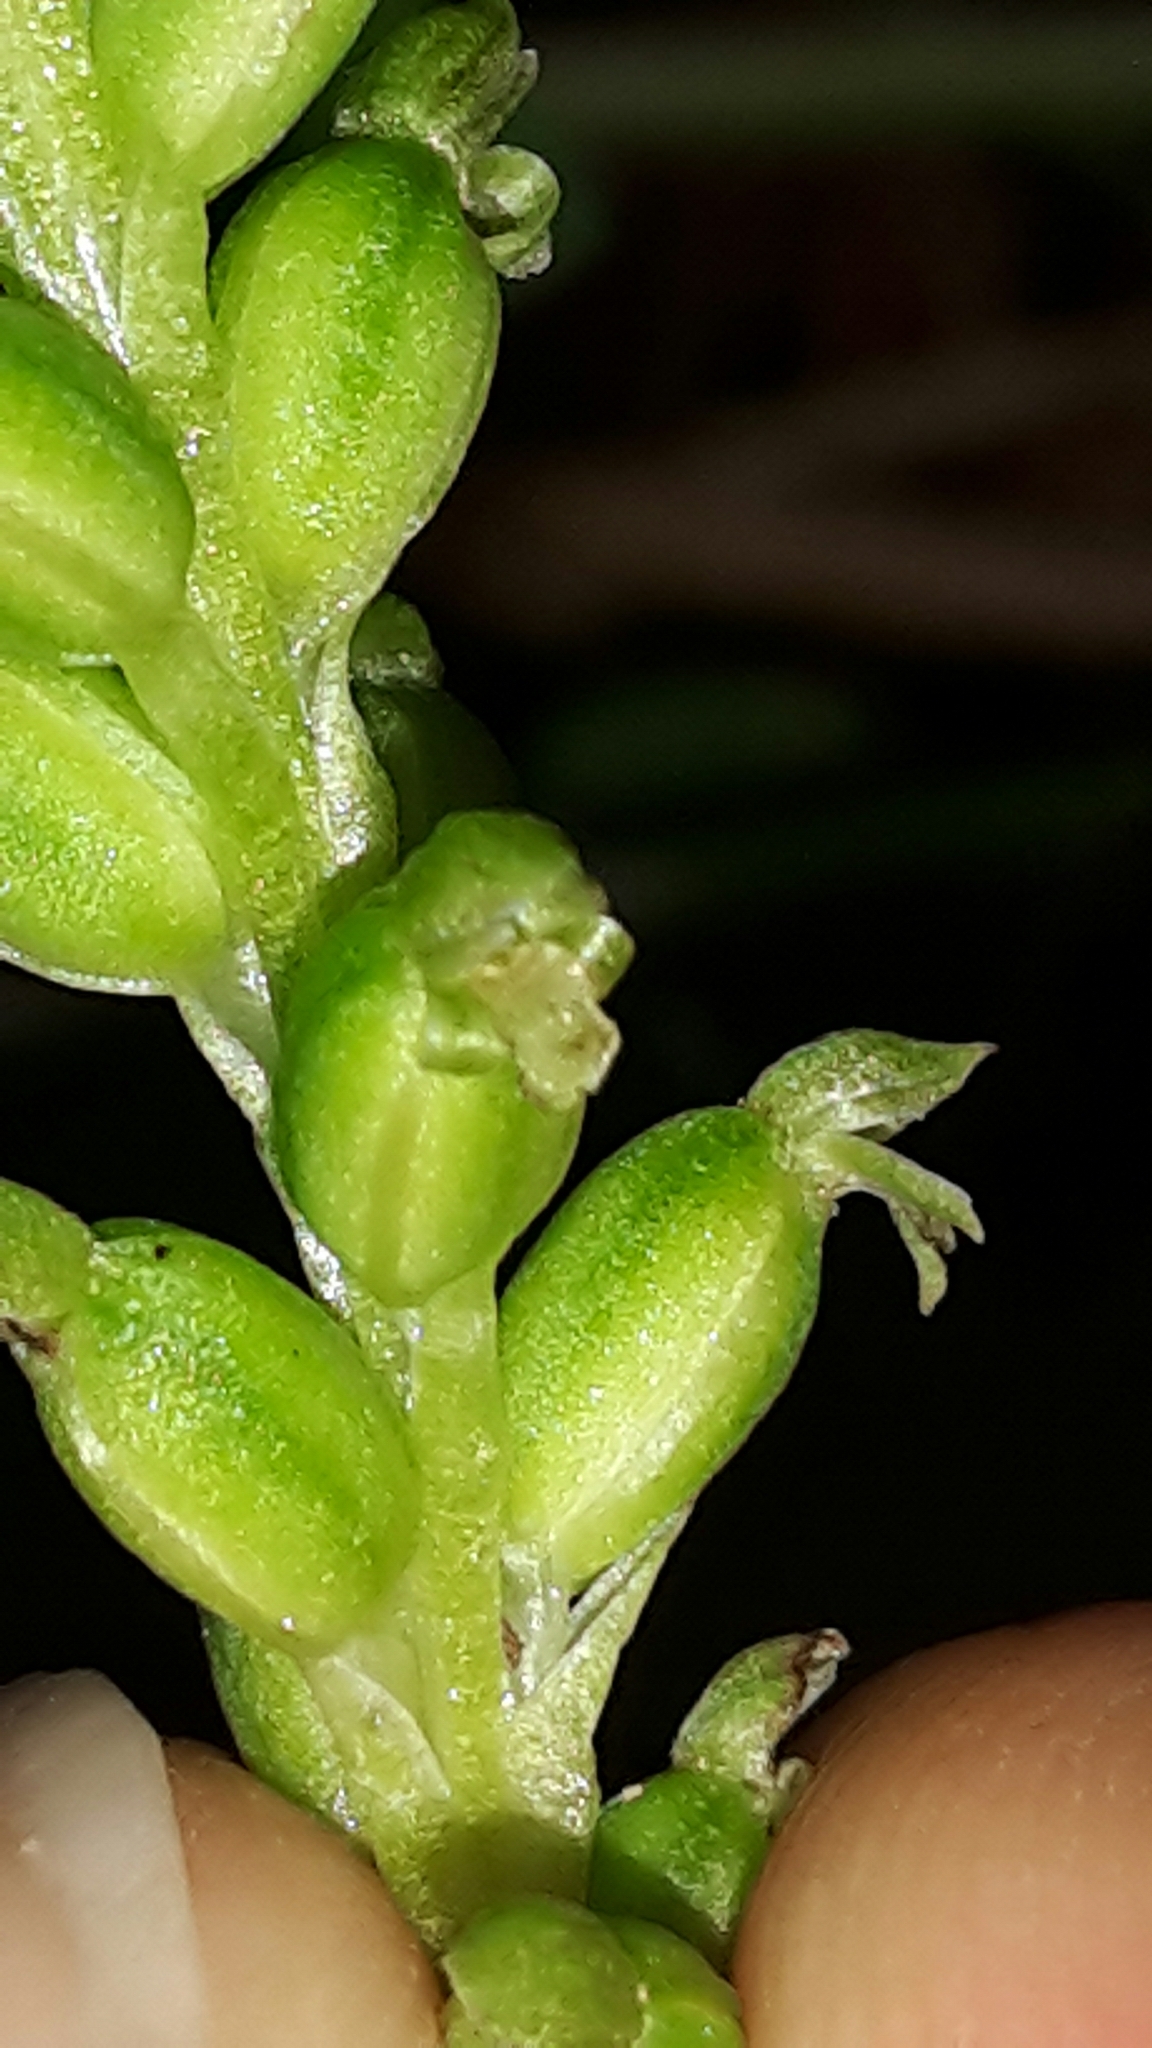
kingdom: Plantae
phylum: Tracheophyta
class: Liliopsida
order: Asparagales
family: Orchidaceae
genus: Microtis
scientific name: Microtis unifolia
